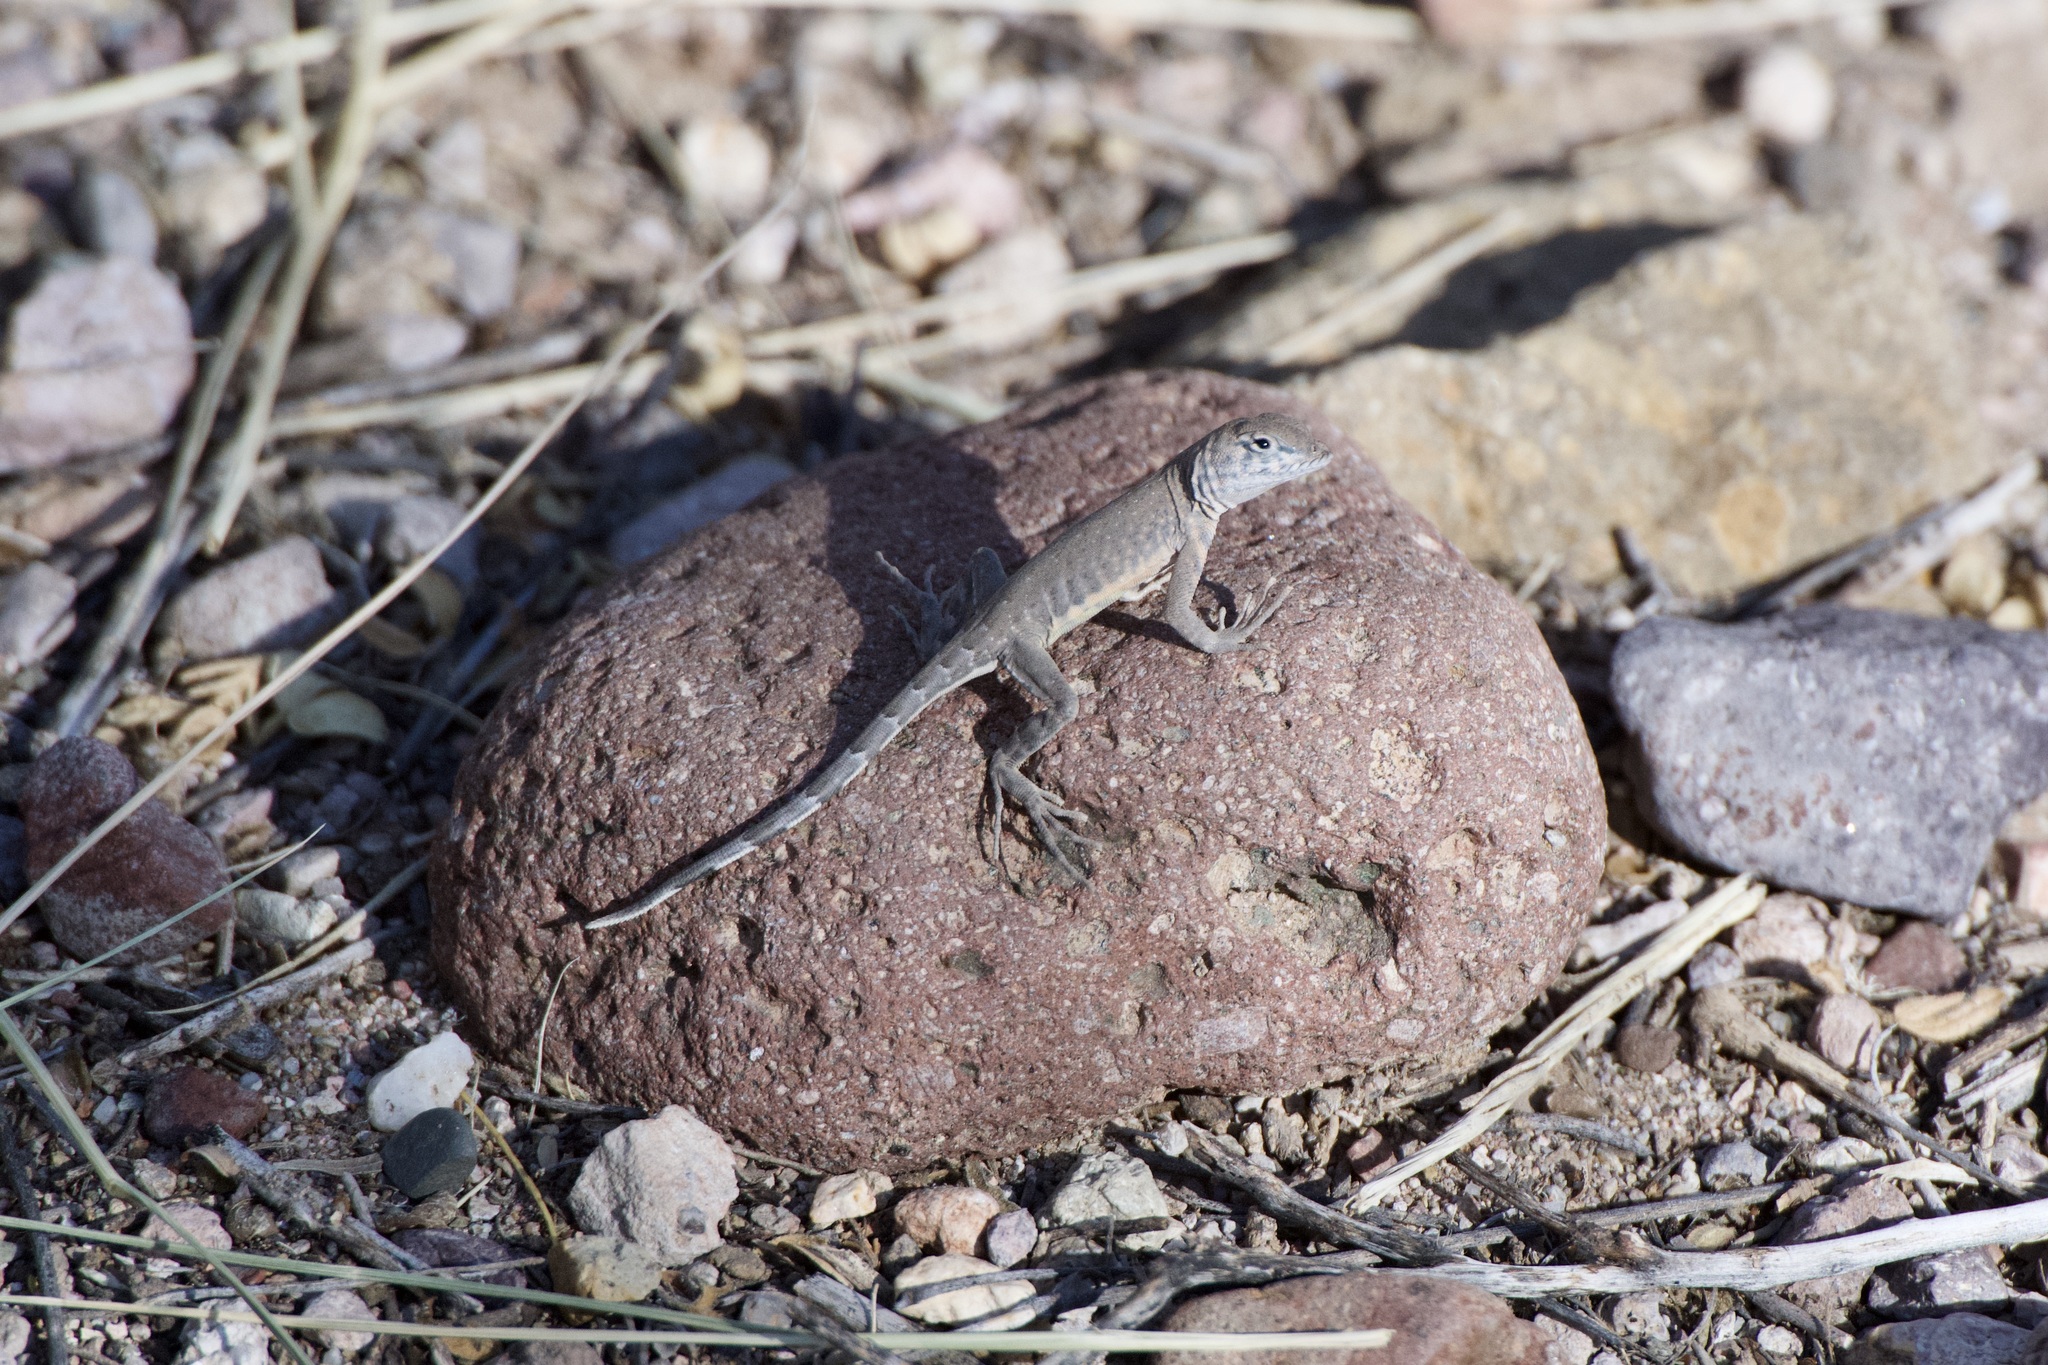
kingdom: Animalia
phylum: Chordata
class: Squamata
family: Phrynosomatidae
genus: Cophosaurus
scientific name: Cophosaurus texanus
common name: Greater earless lizard
